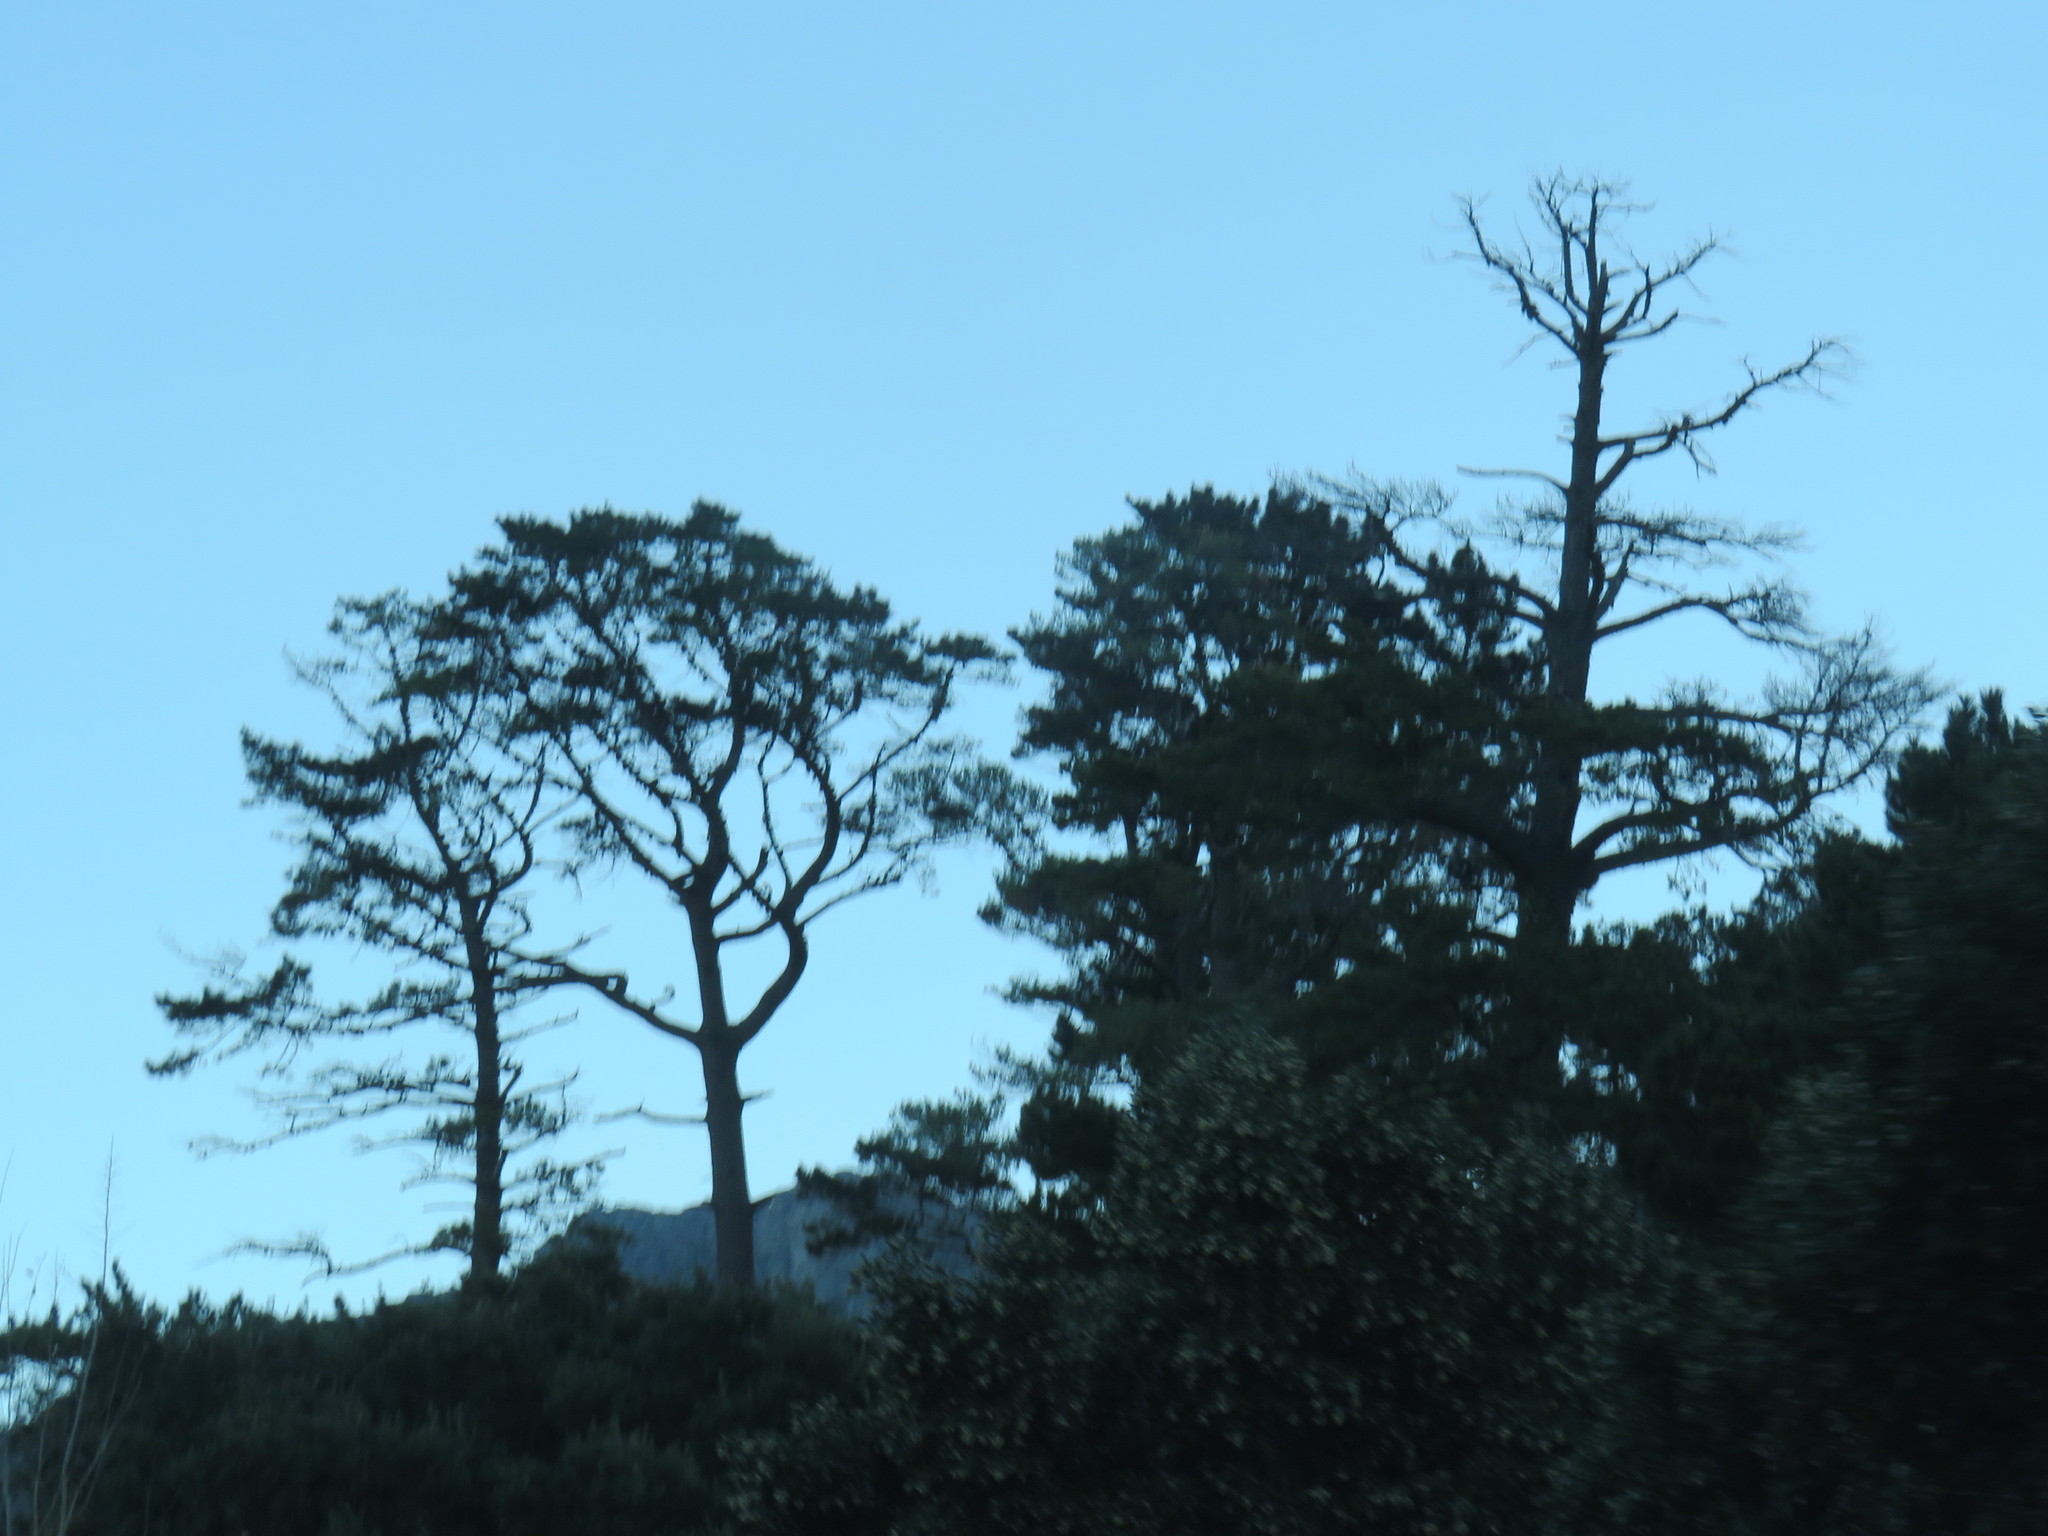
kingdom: Plantae
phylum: Tracheophyta
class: Pinopsida
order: Pinales
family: Pinaceae
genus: Pinus
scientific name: Pinus radiata
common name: Monterey pine
